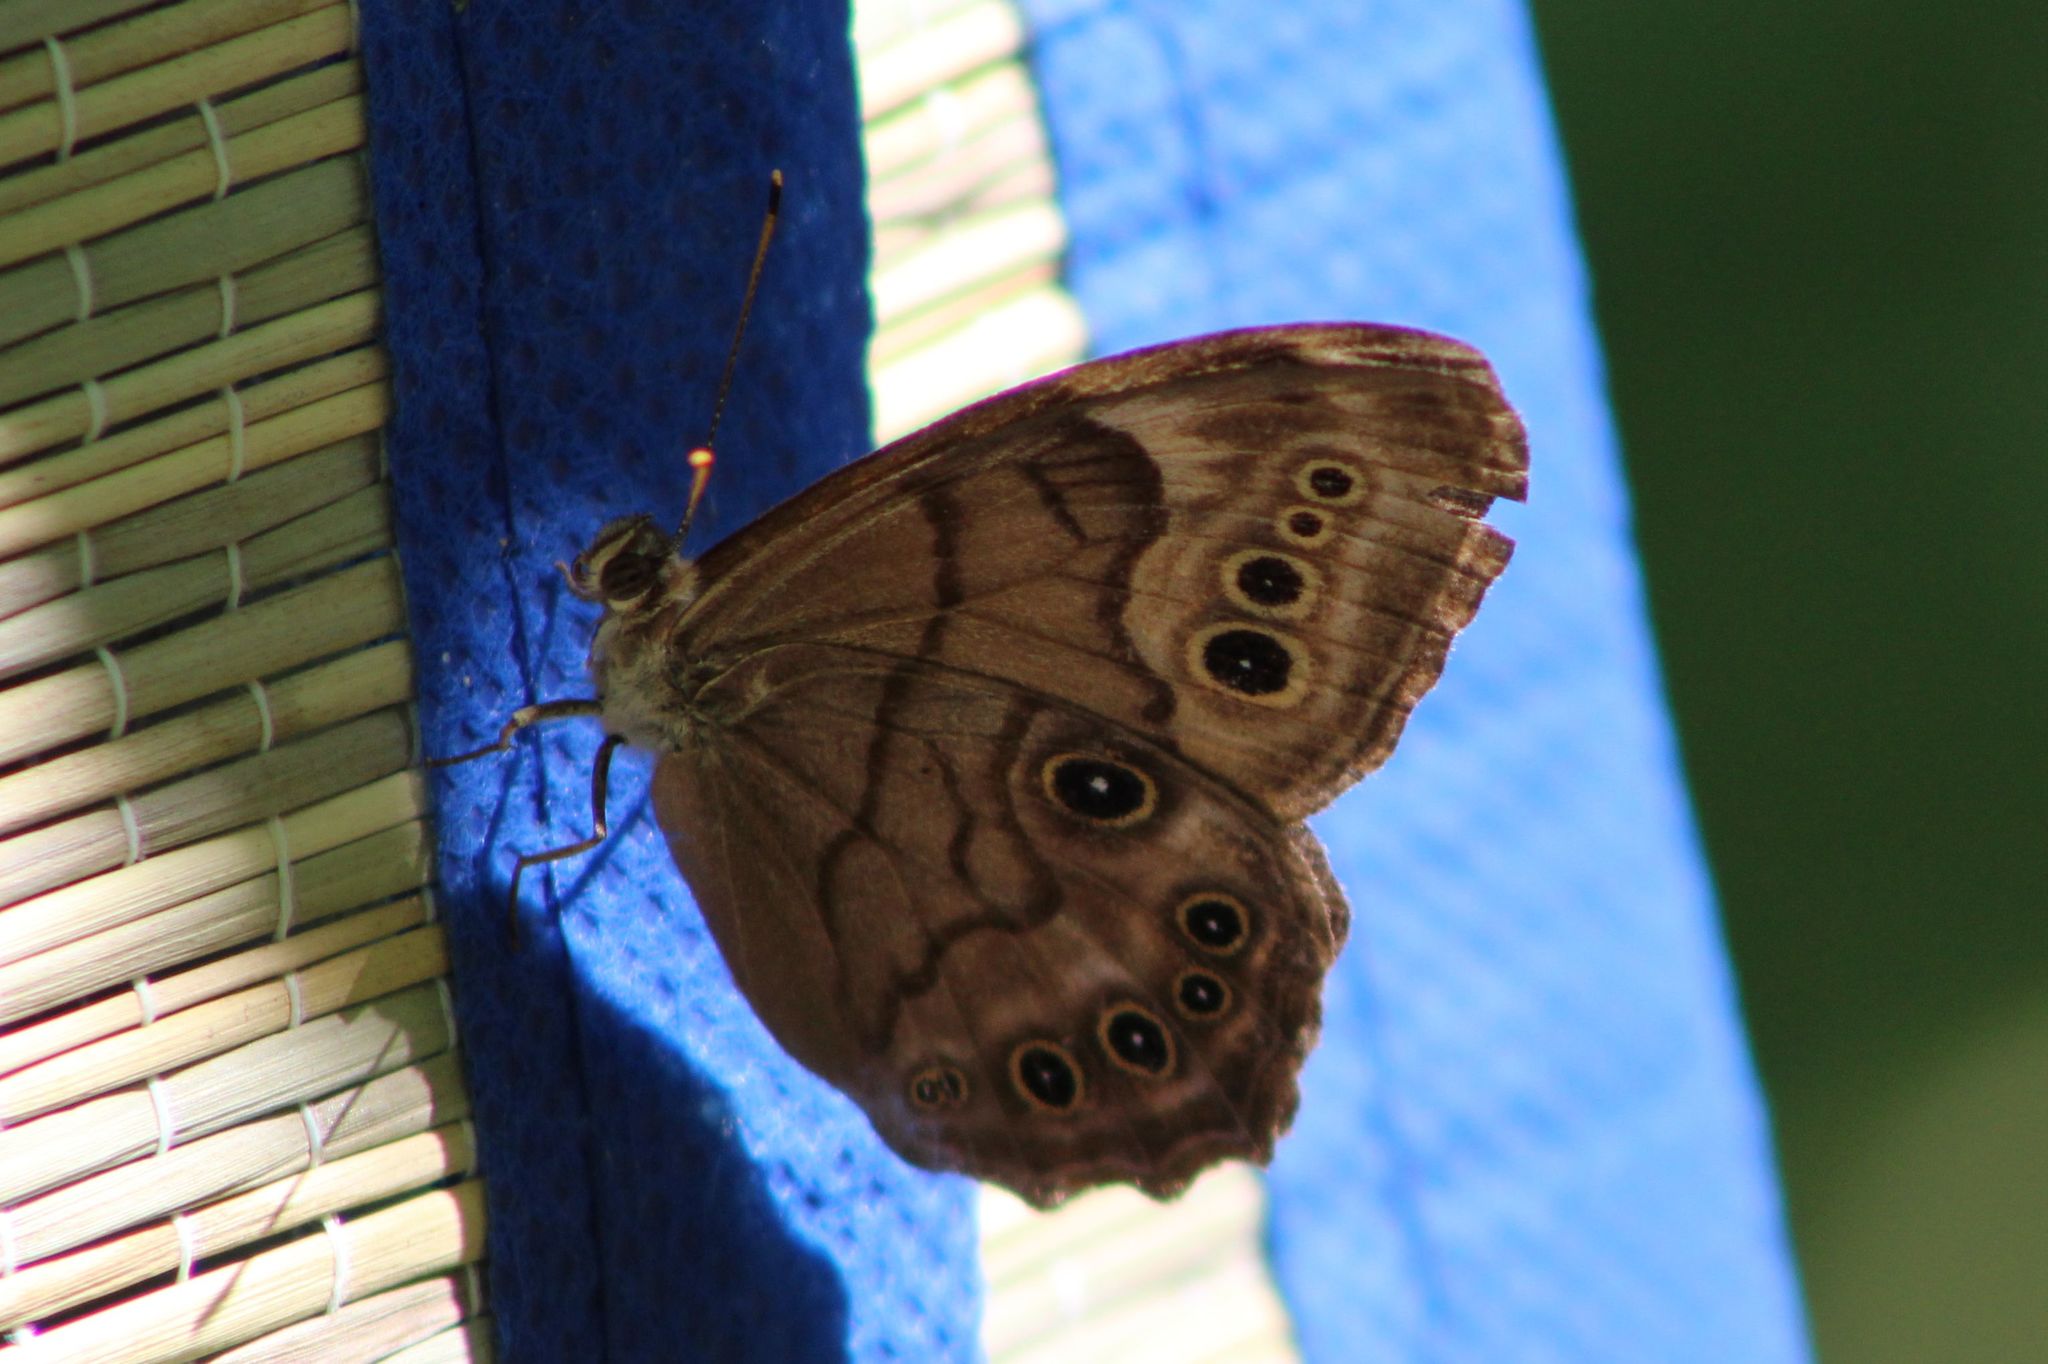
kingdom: Animalia
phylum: Arthropoda
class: Insecta
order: Lepidoptera
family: Nymphalidae
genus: Lethe
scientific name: Lethe anthedon
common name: Northern pearly-eye
